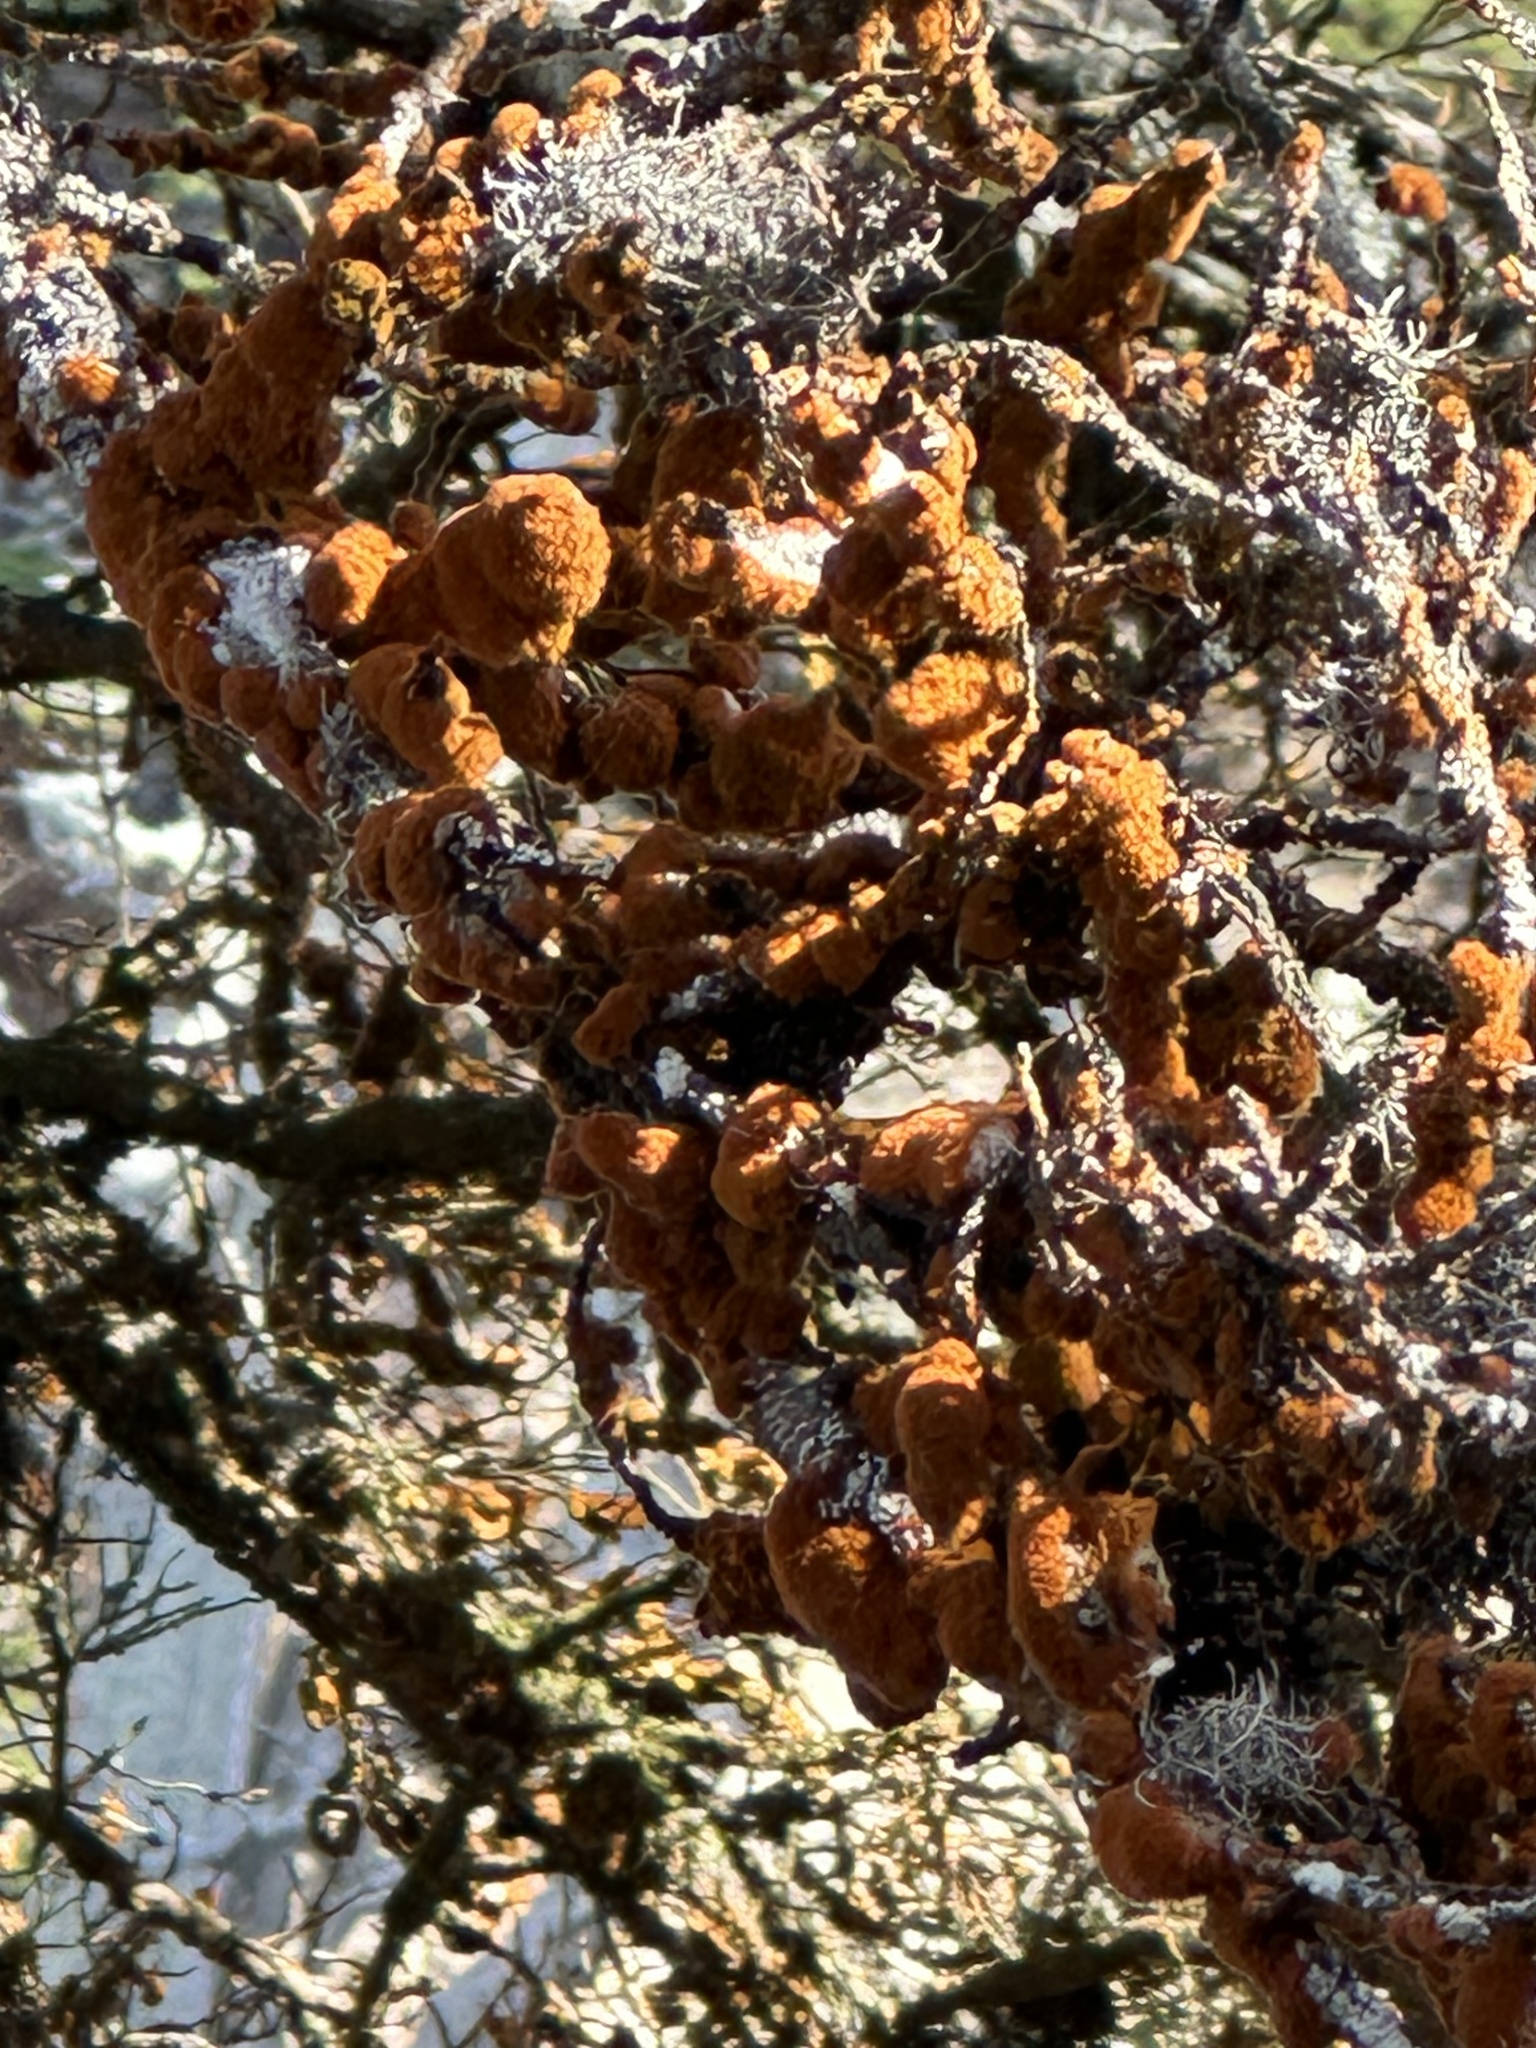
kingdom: Plantae
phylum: Chlorophyta
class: Ulvophyceae
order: Trentepohliales
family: Trentepohliaceae
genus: Trentepohlia
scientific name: Trentepohlia aurea
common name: Orange rock hair
